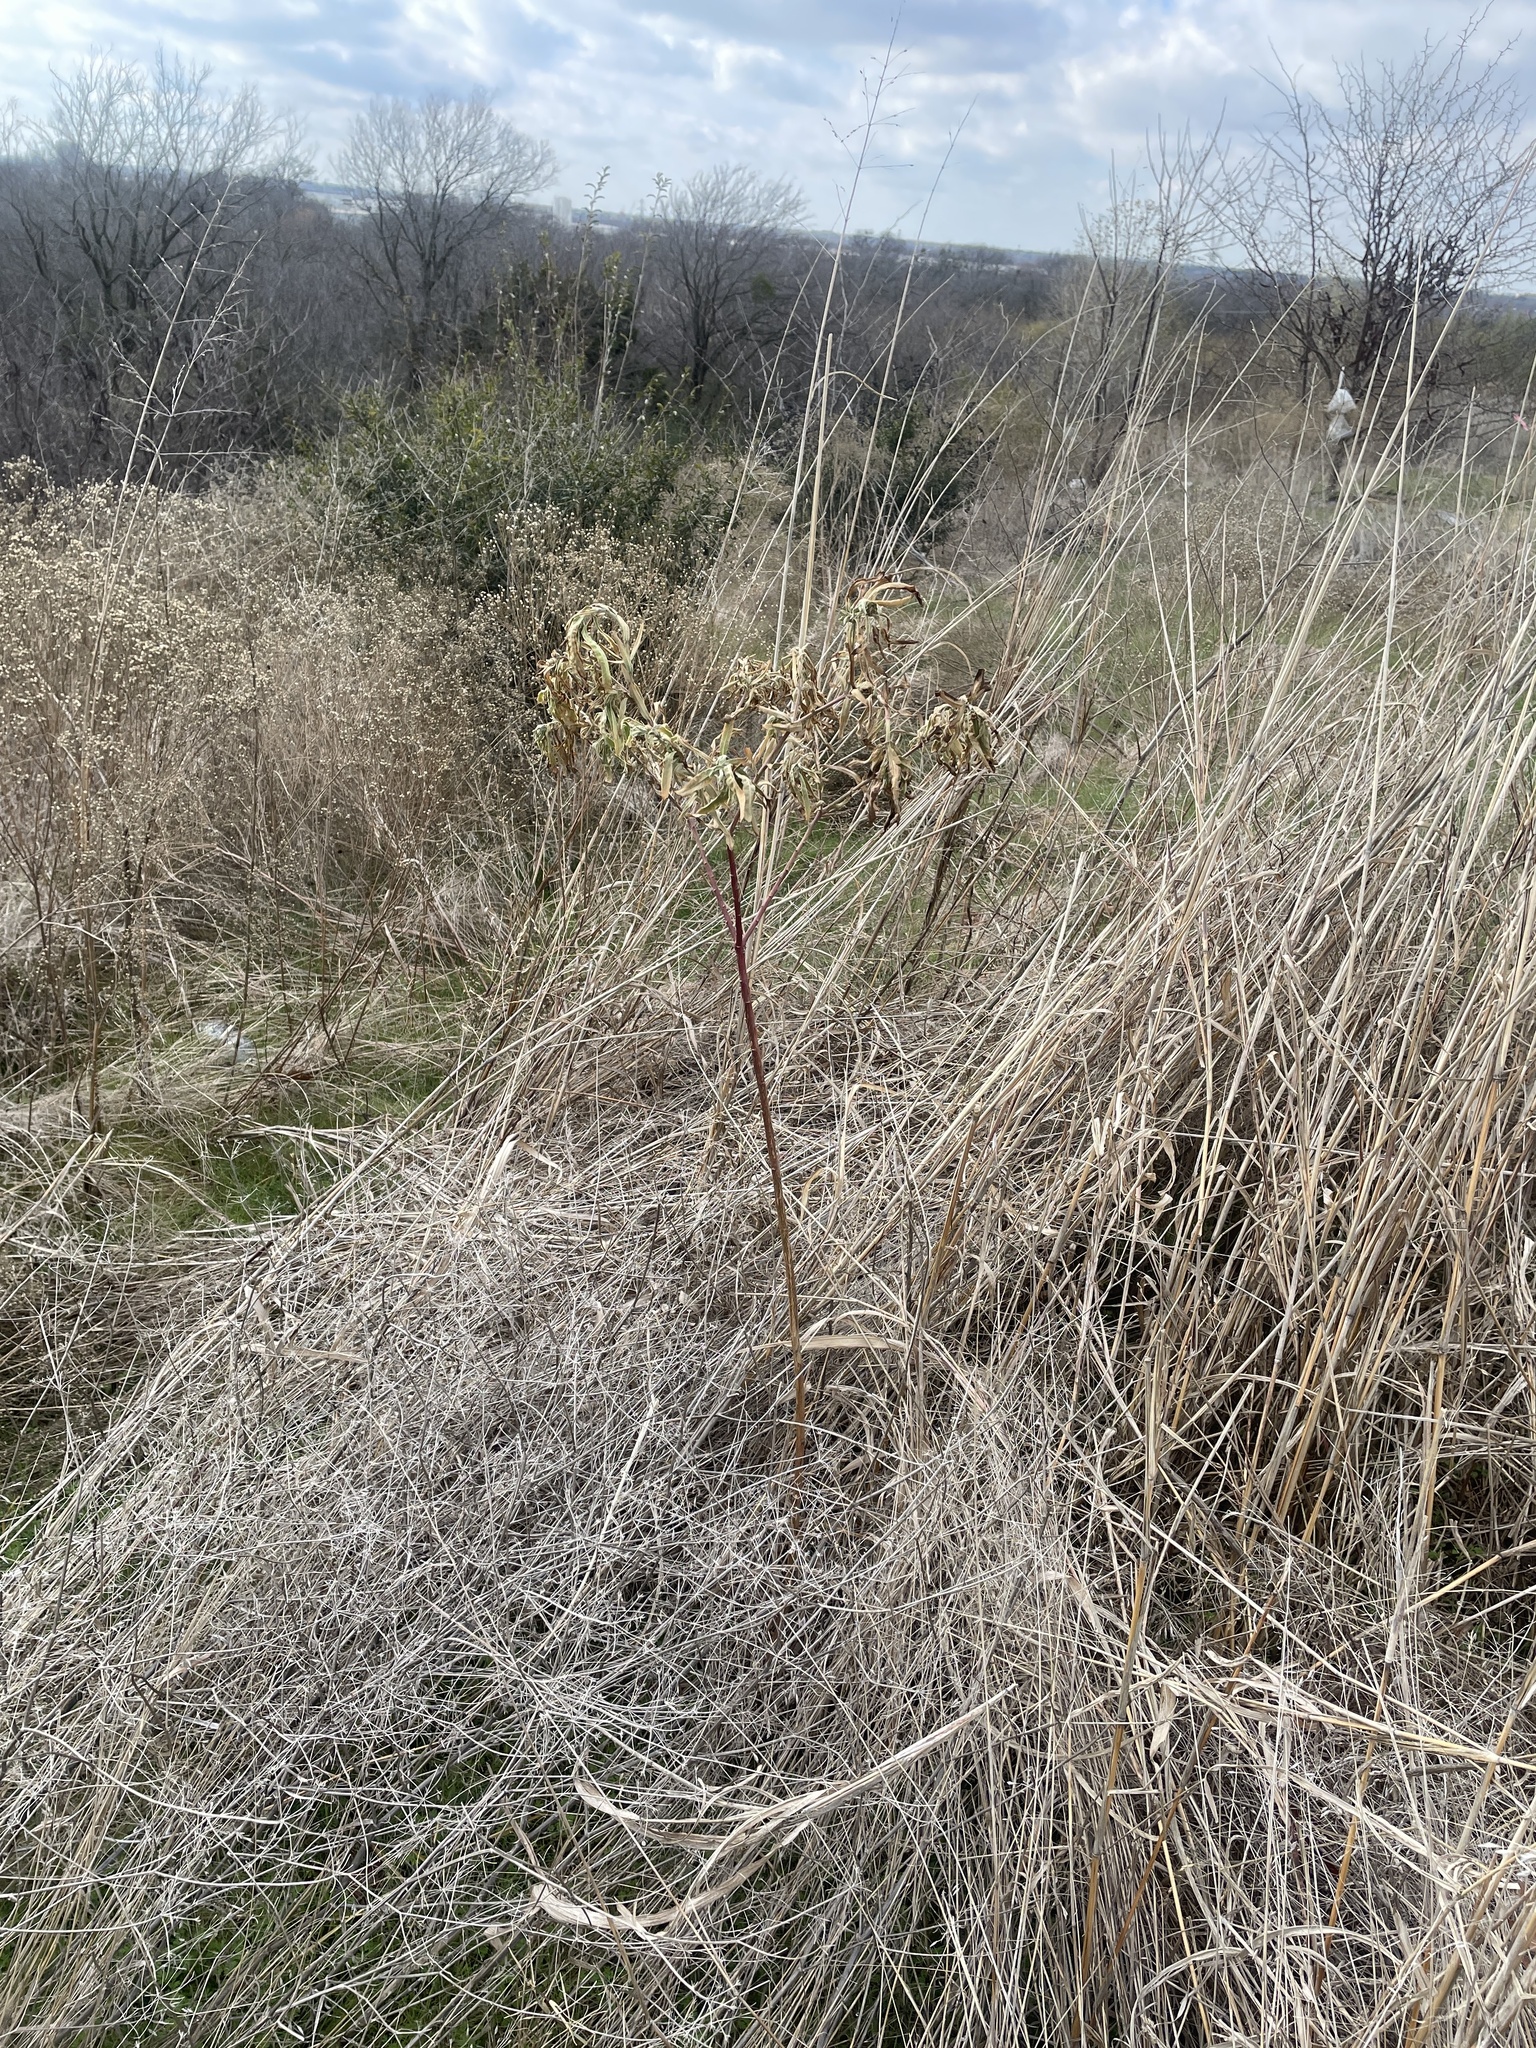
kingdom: Plantae
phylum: Tracheophyta
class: Magnoliopsida
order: Malpighiales
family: Euphorbiaceae
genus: Euphorbia
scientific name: Euphorbia bicolor
